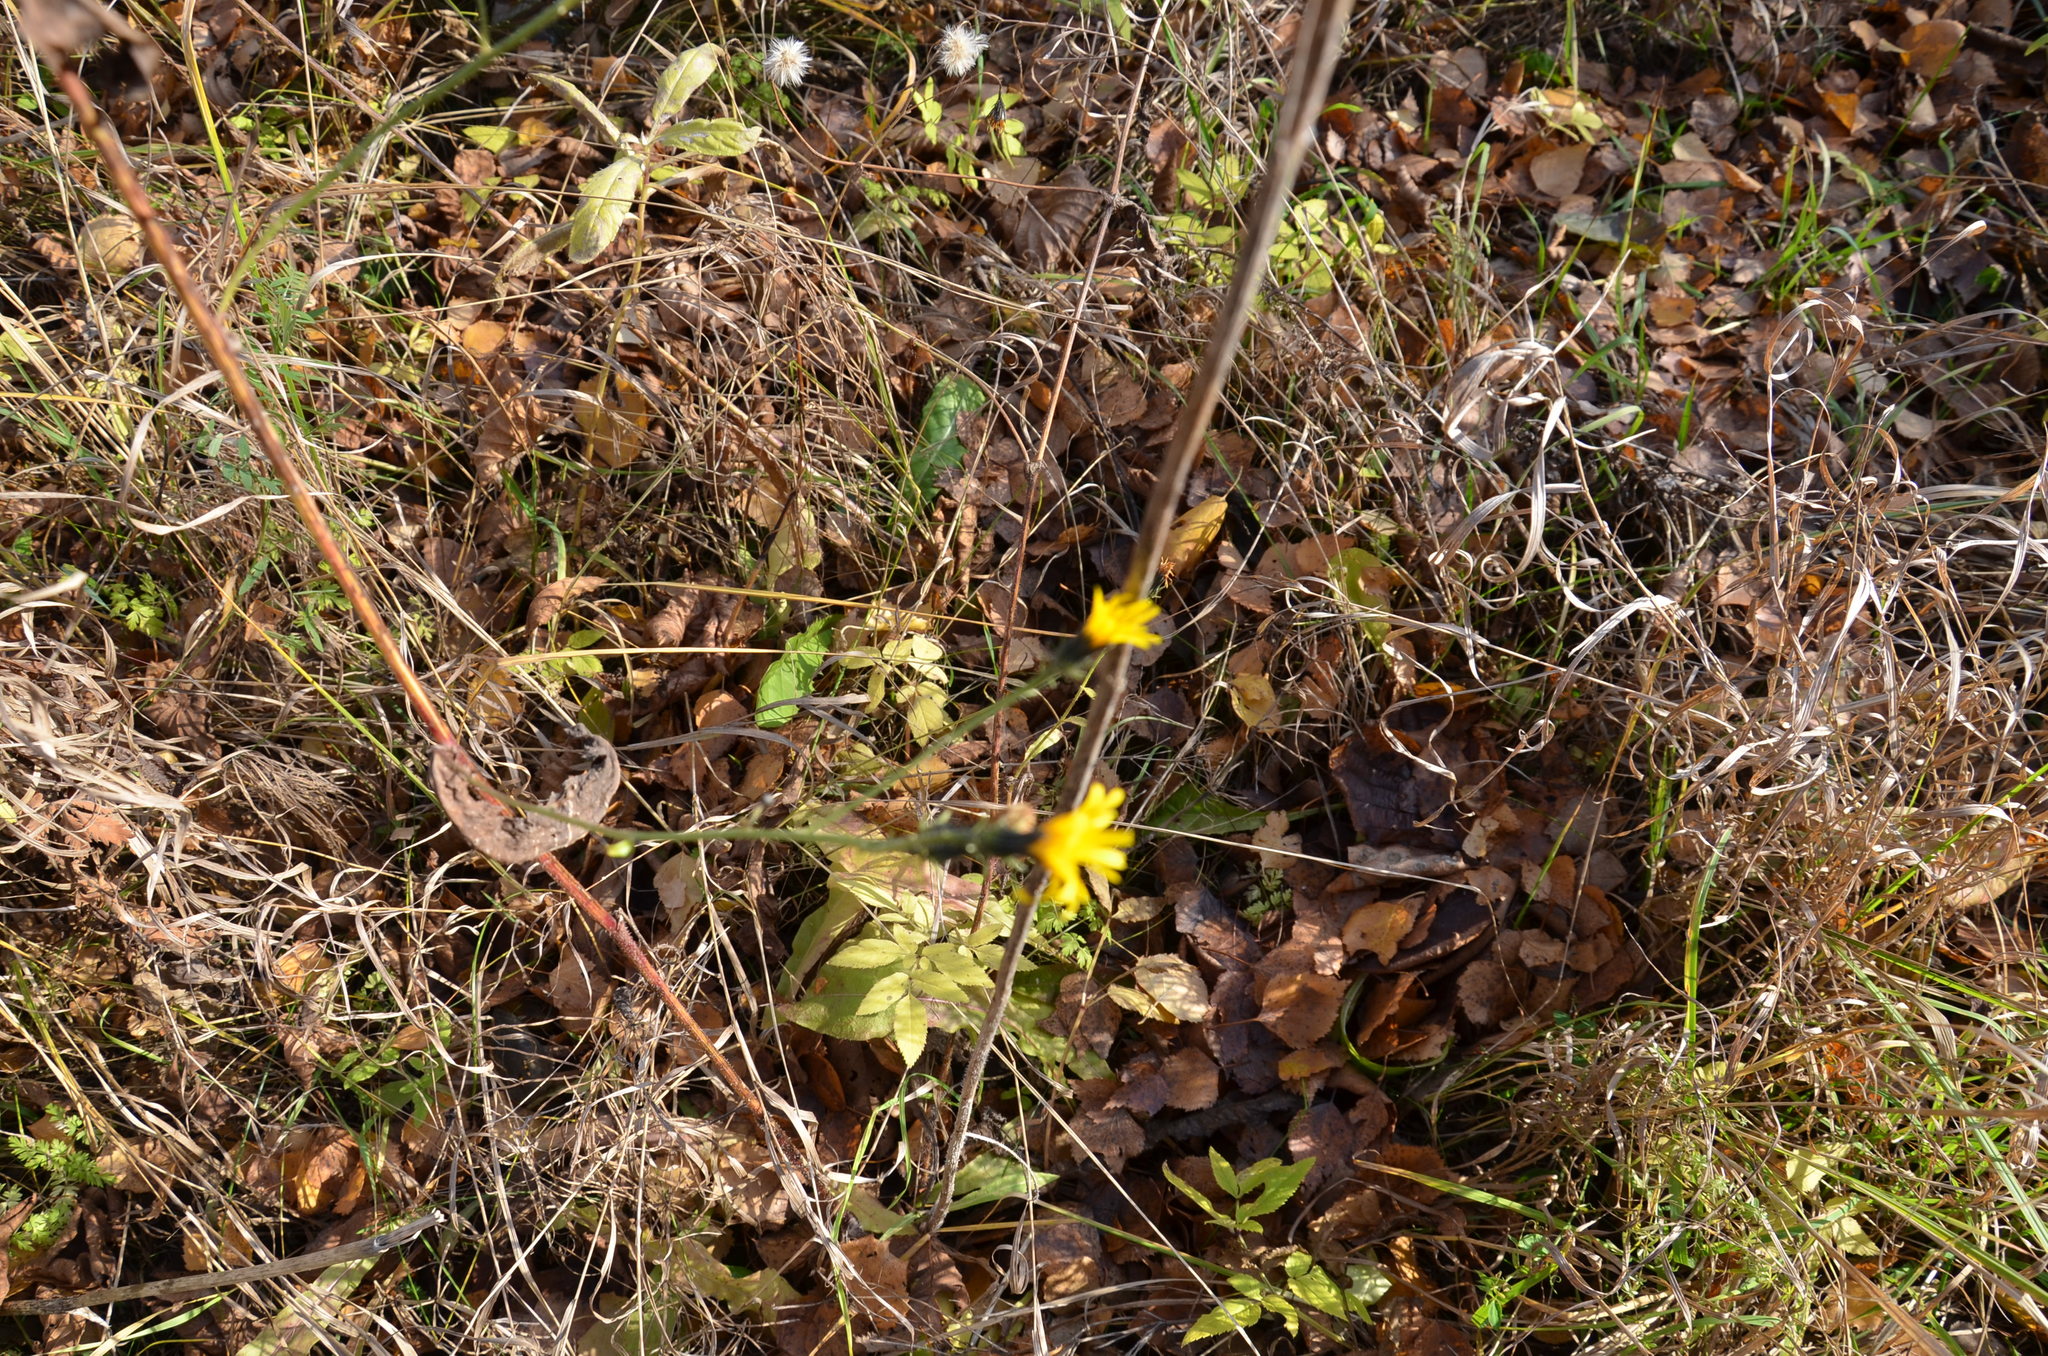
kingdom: Plantae
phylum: Tracheophyta
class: Magnoliopsida
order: Asterales
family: Asteraceae
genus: Scorzoneroides
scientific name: Scorzoneroides autumnalis
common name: Autumn hawkbit
